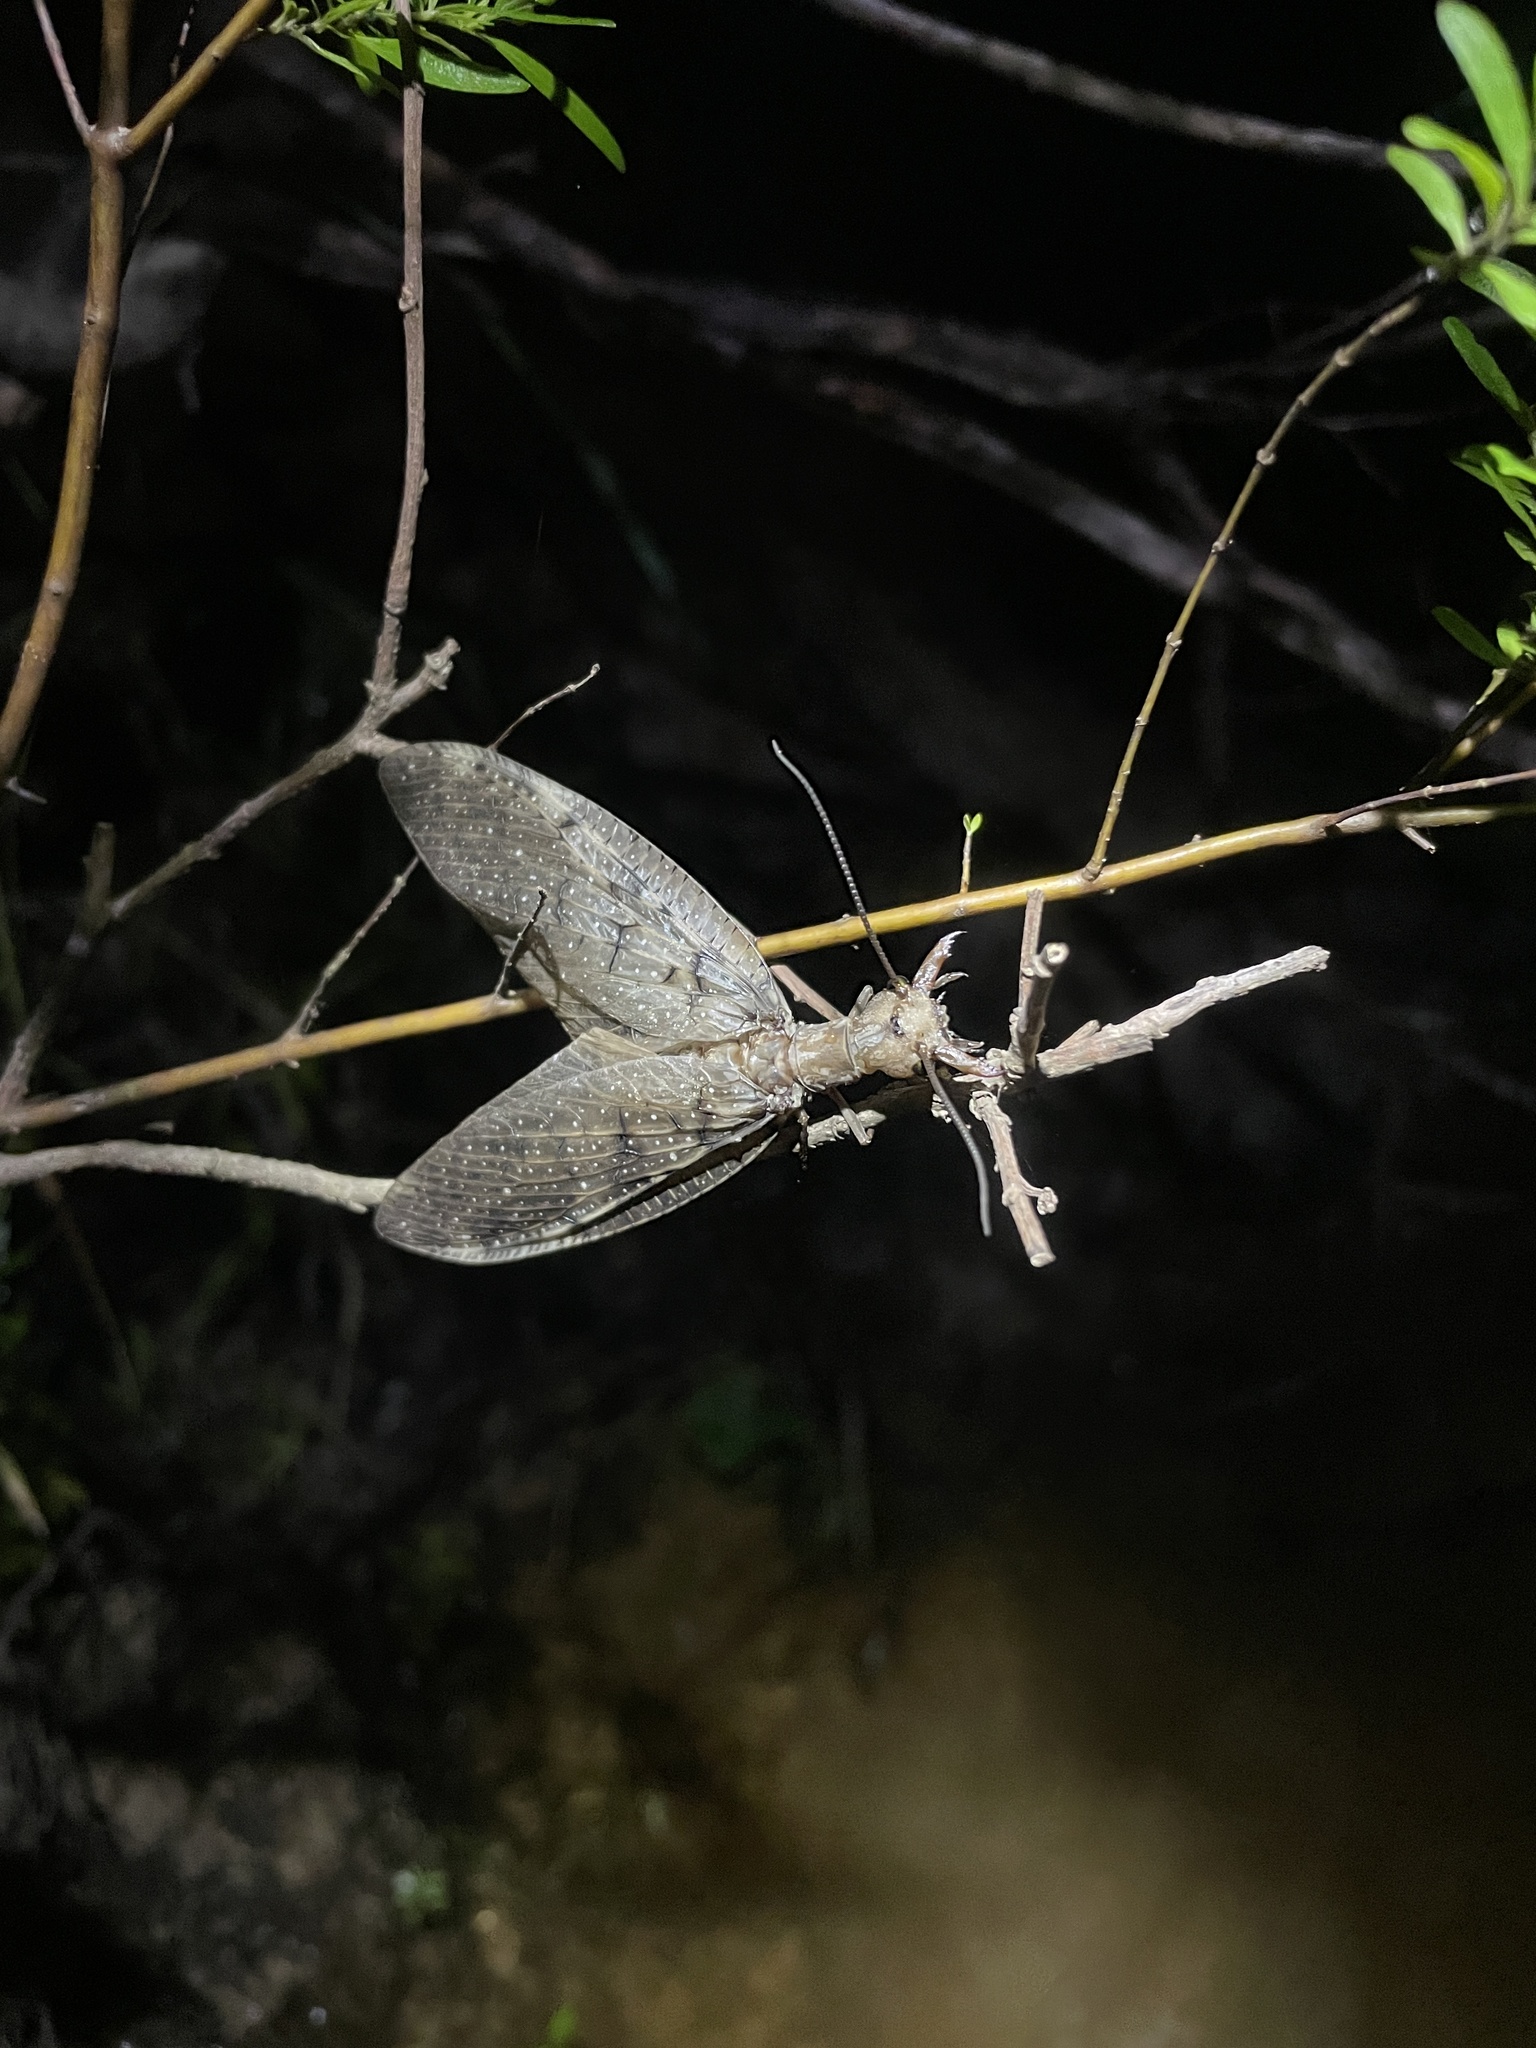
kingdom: Animalia
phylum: Arthropoda
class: Insecta
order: Megaloptera
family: Corydalidae
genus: Corydalus
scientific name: Corydalus cornutus
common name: Dobsonfly
